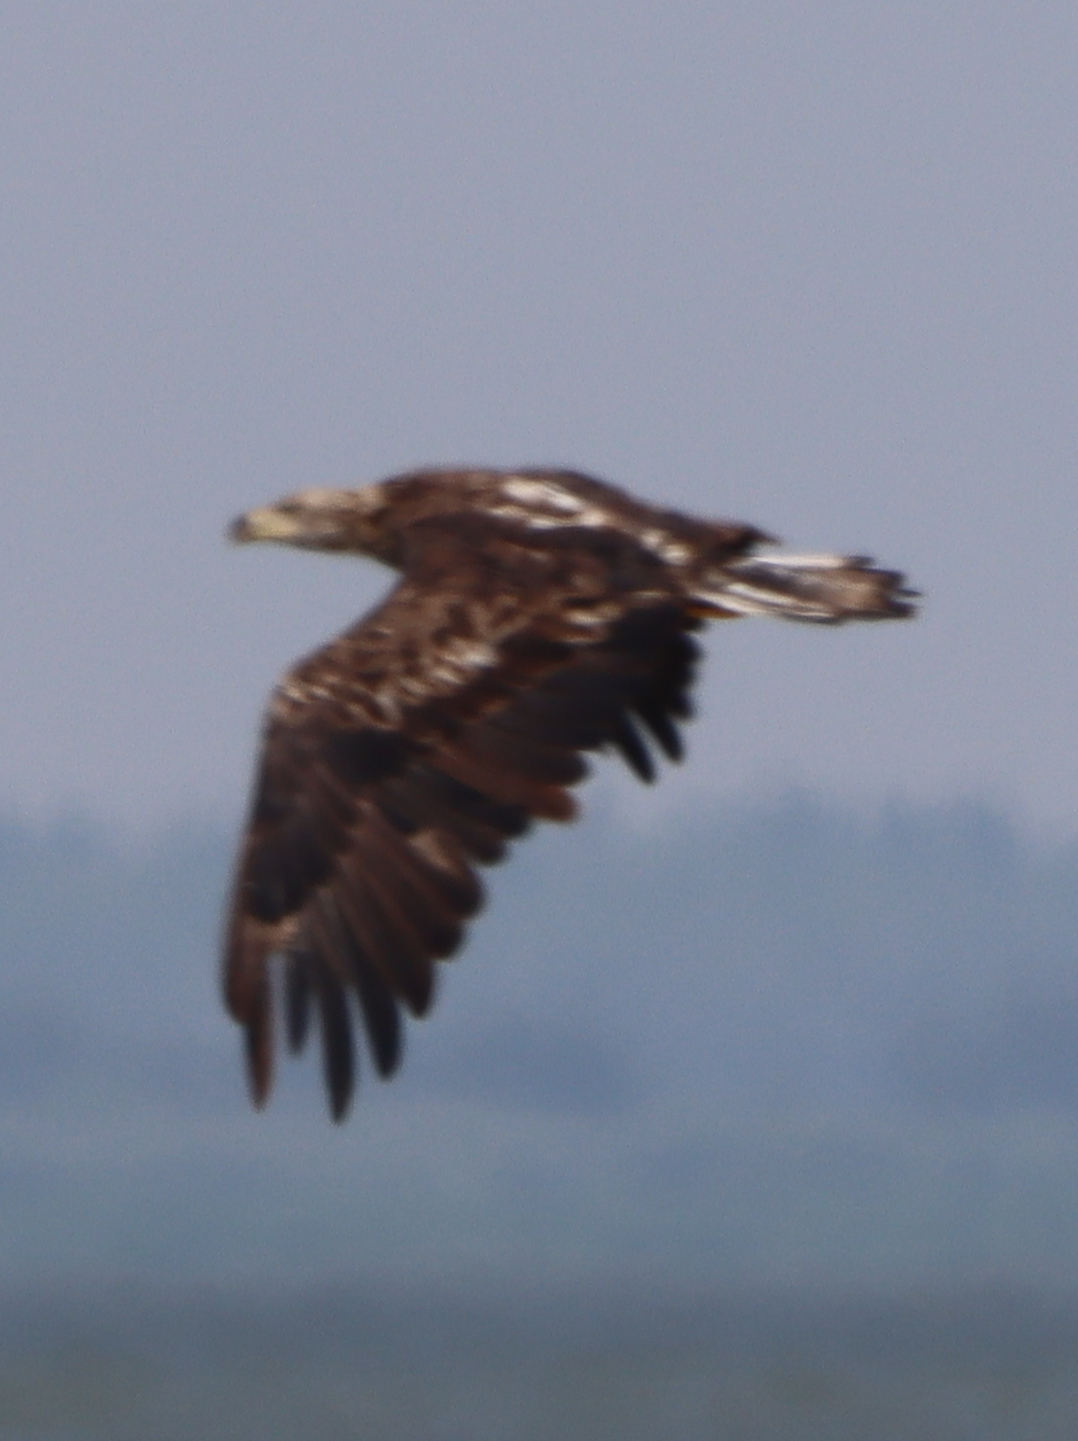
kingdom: Animalia
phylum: Chordata
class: Aves
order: Accipitriformes
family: Accipitridae
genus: Haliaeetus
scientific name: Haliaeetus leucocephalus
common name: Bald eagle
